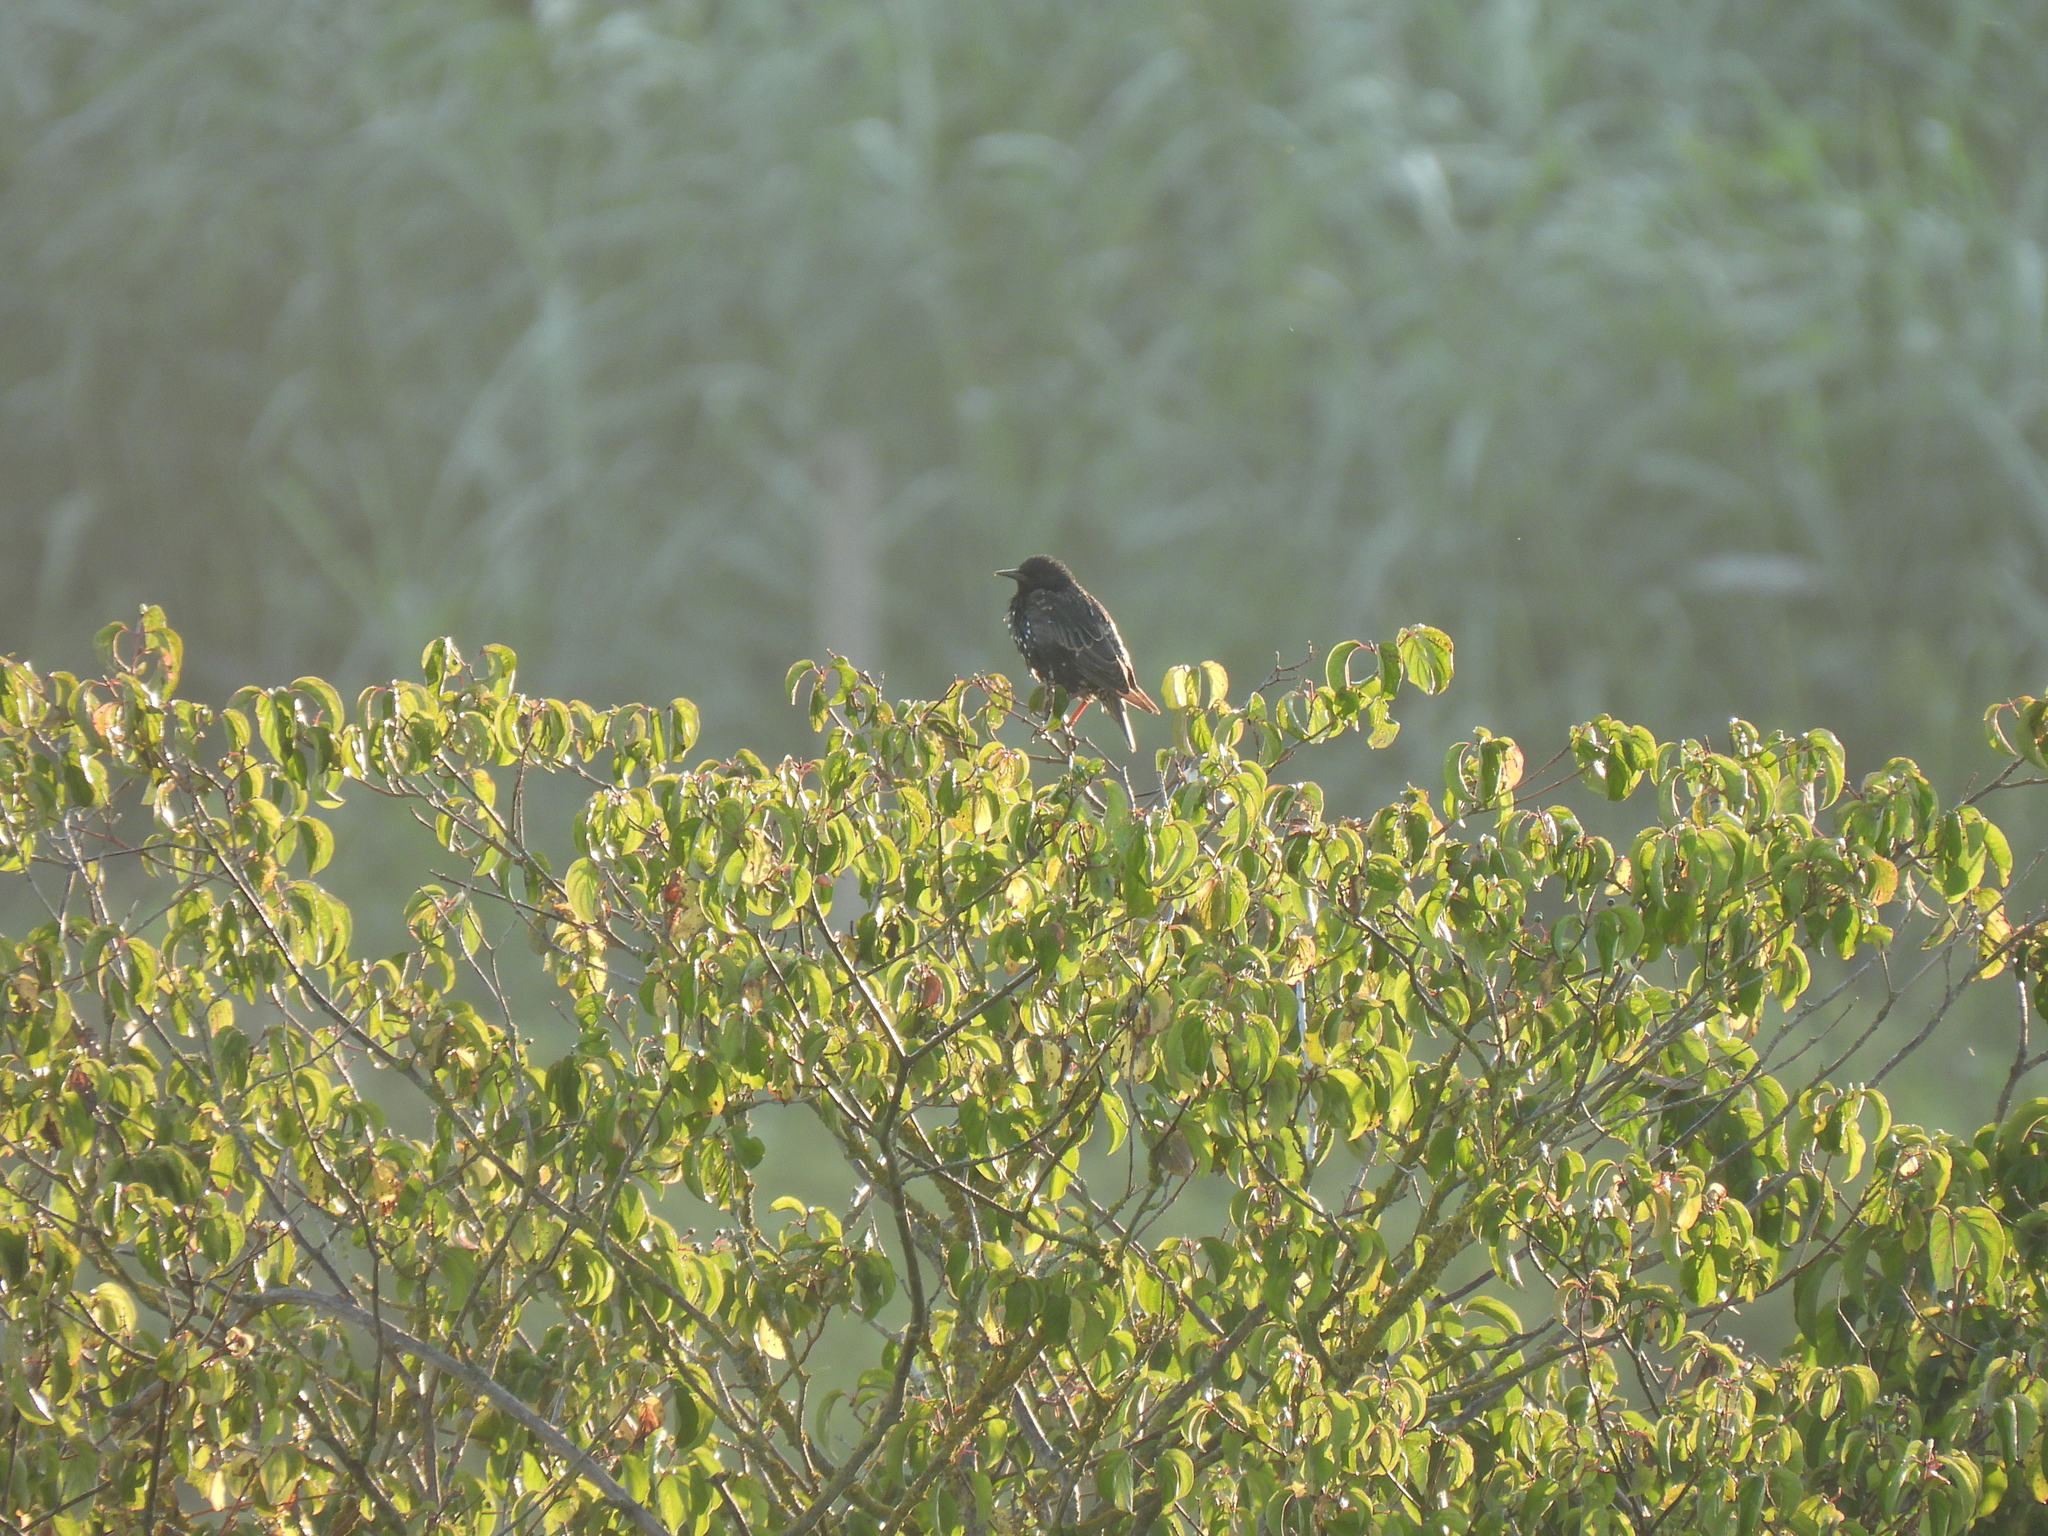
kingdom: Animalia
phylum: Chordata
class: Aves
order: Passeriformes
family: Sturnidae
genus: Sturnus
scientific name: Sturnus vulgaris
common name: Common starling
